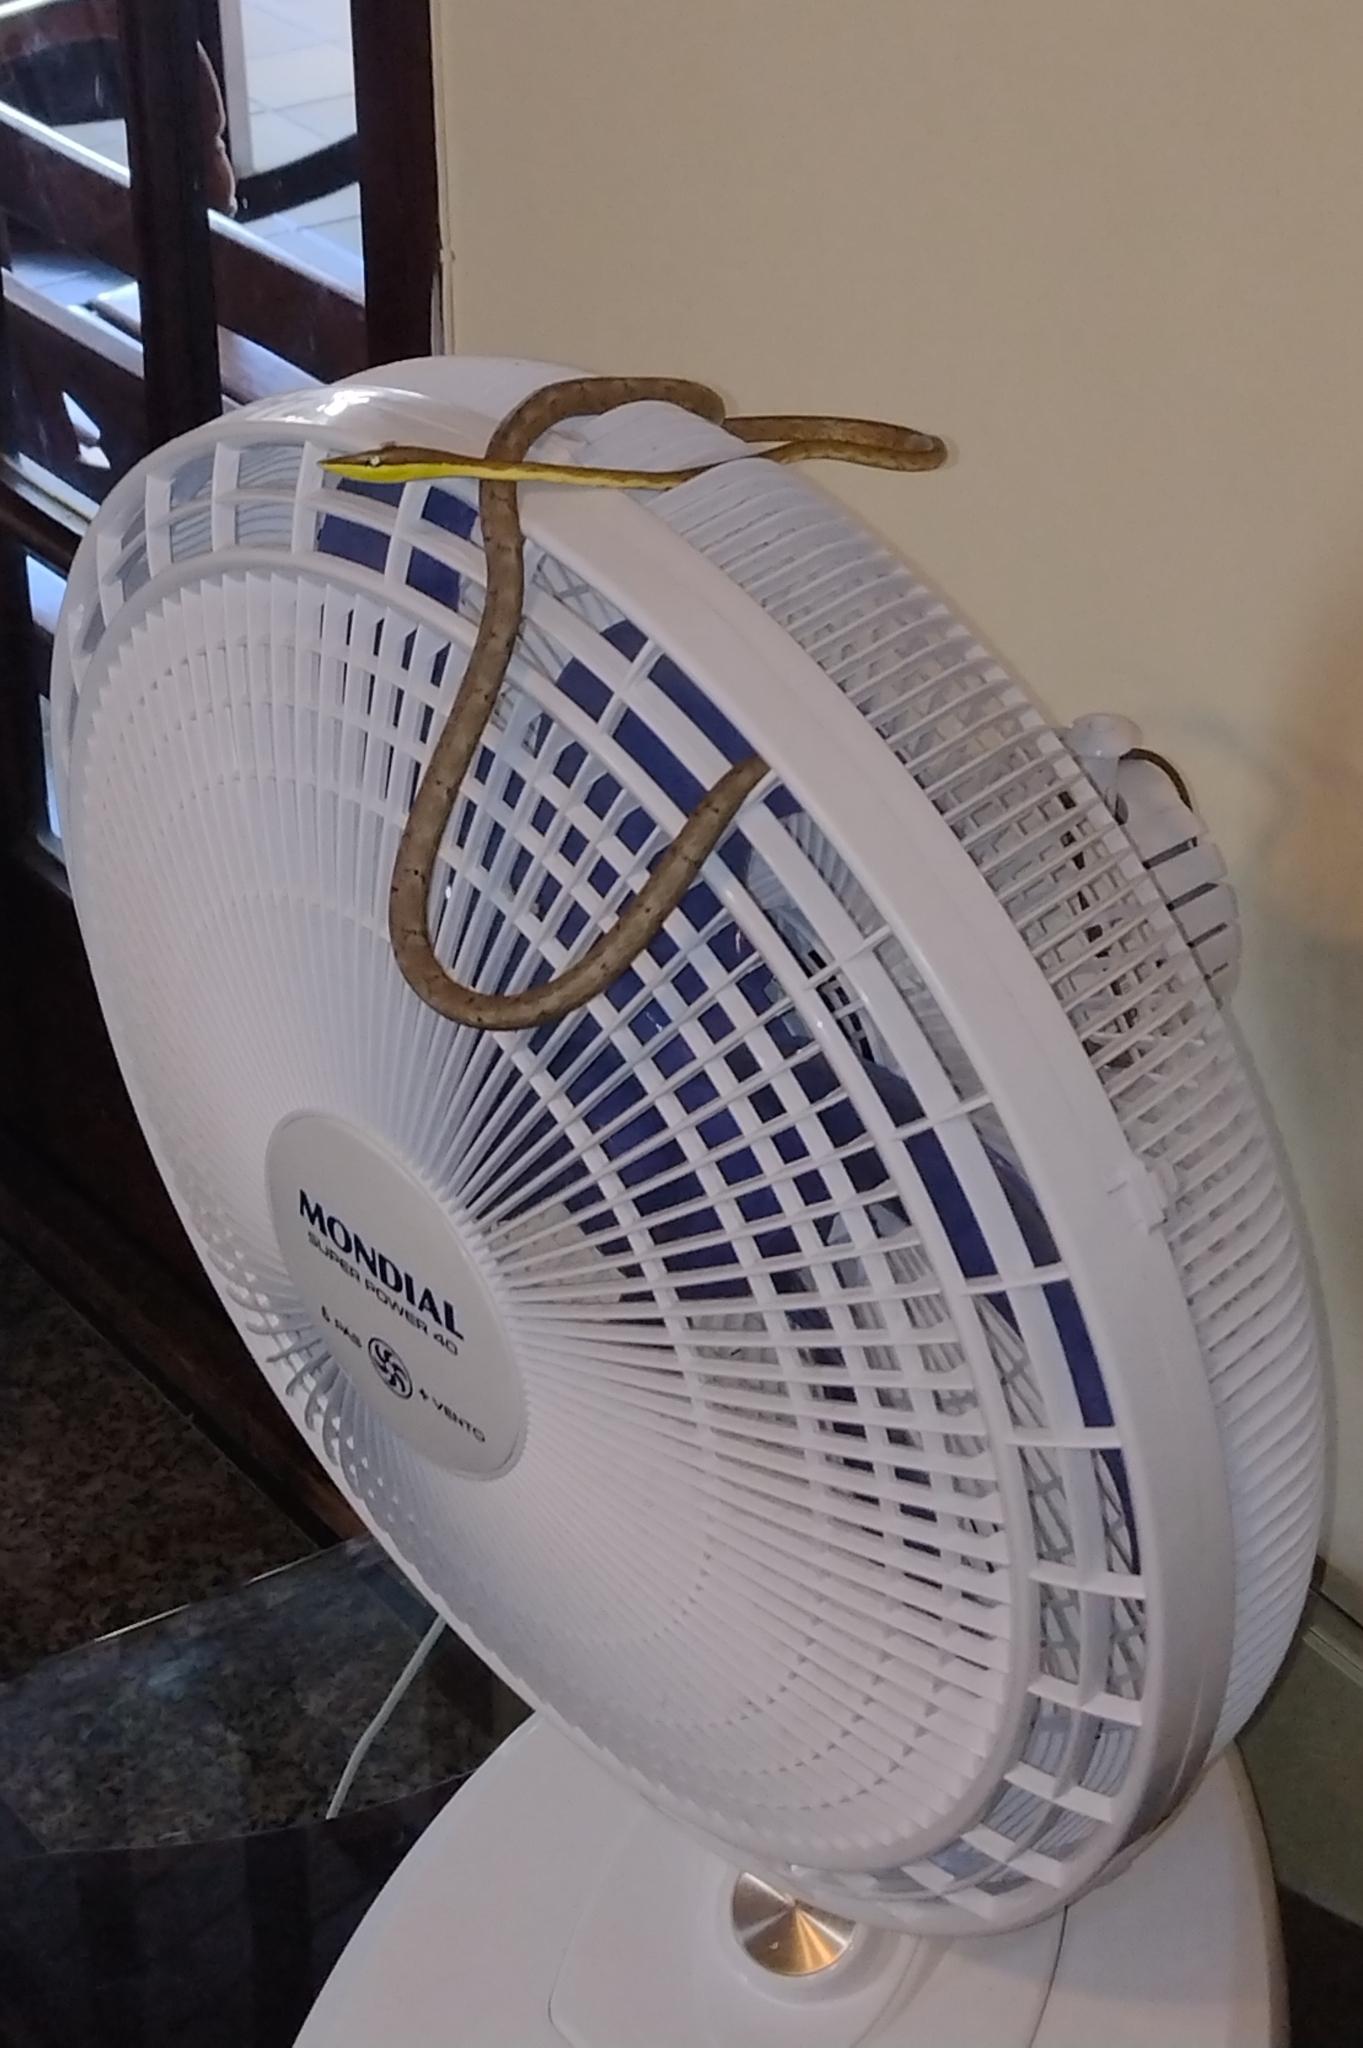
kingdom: Animalia
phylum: Chordata
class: Squamata
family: Colubridae
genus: Oxybelis
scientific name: Oxybelis aeneus
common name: Brown vinesnake
